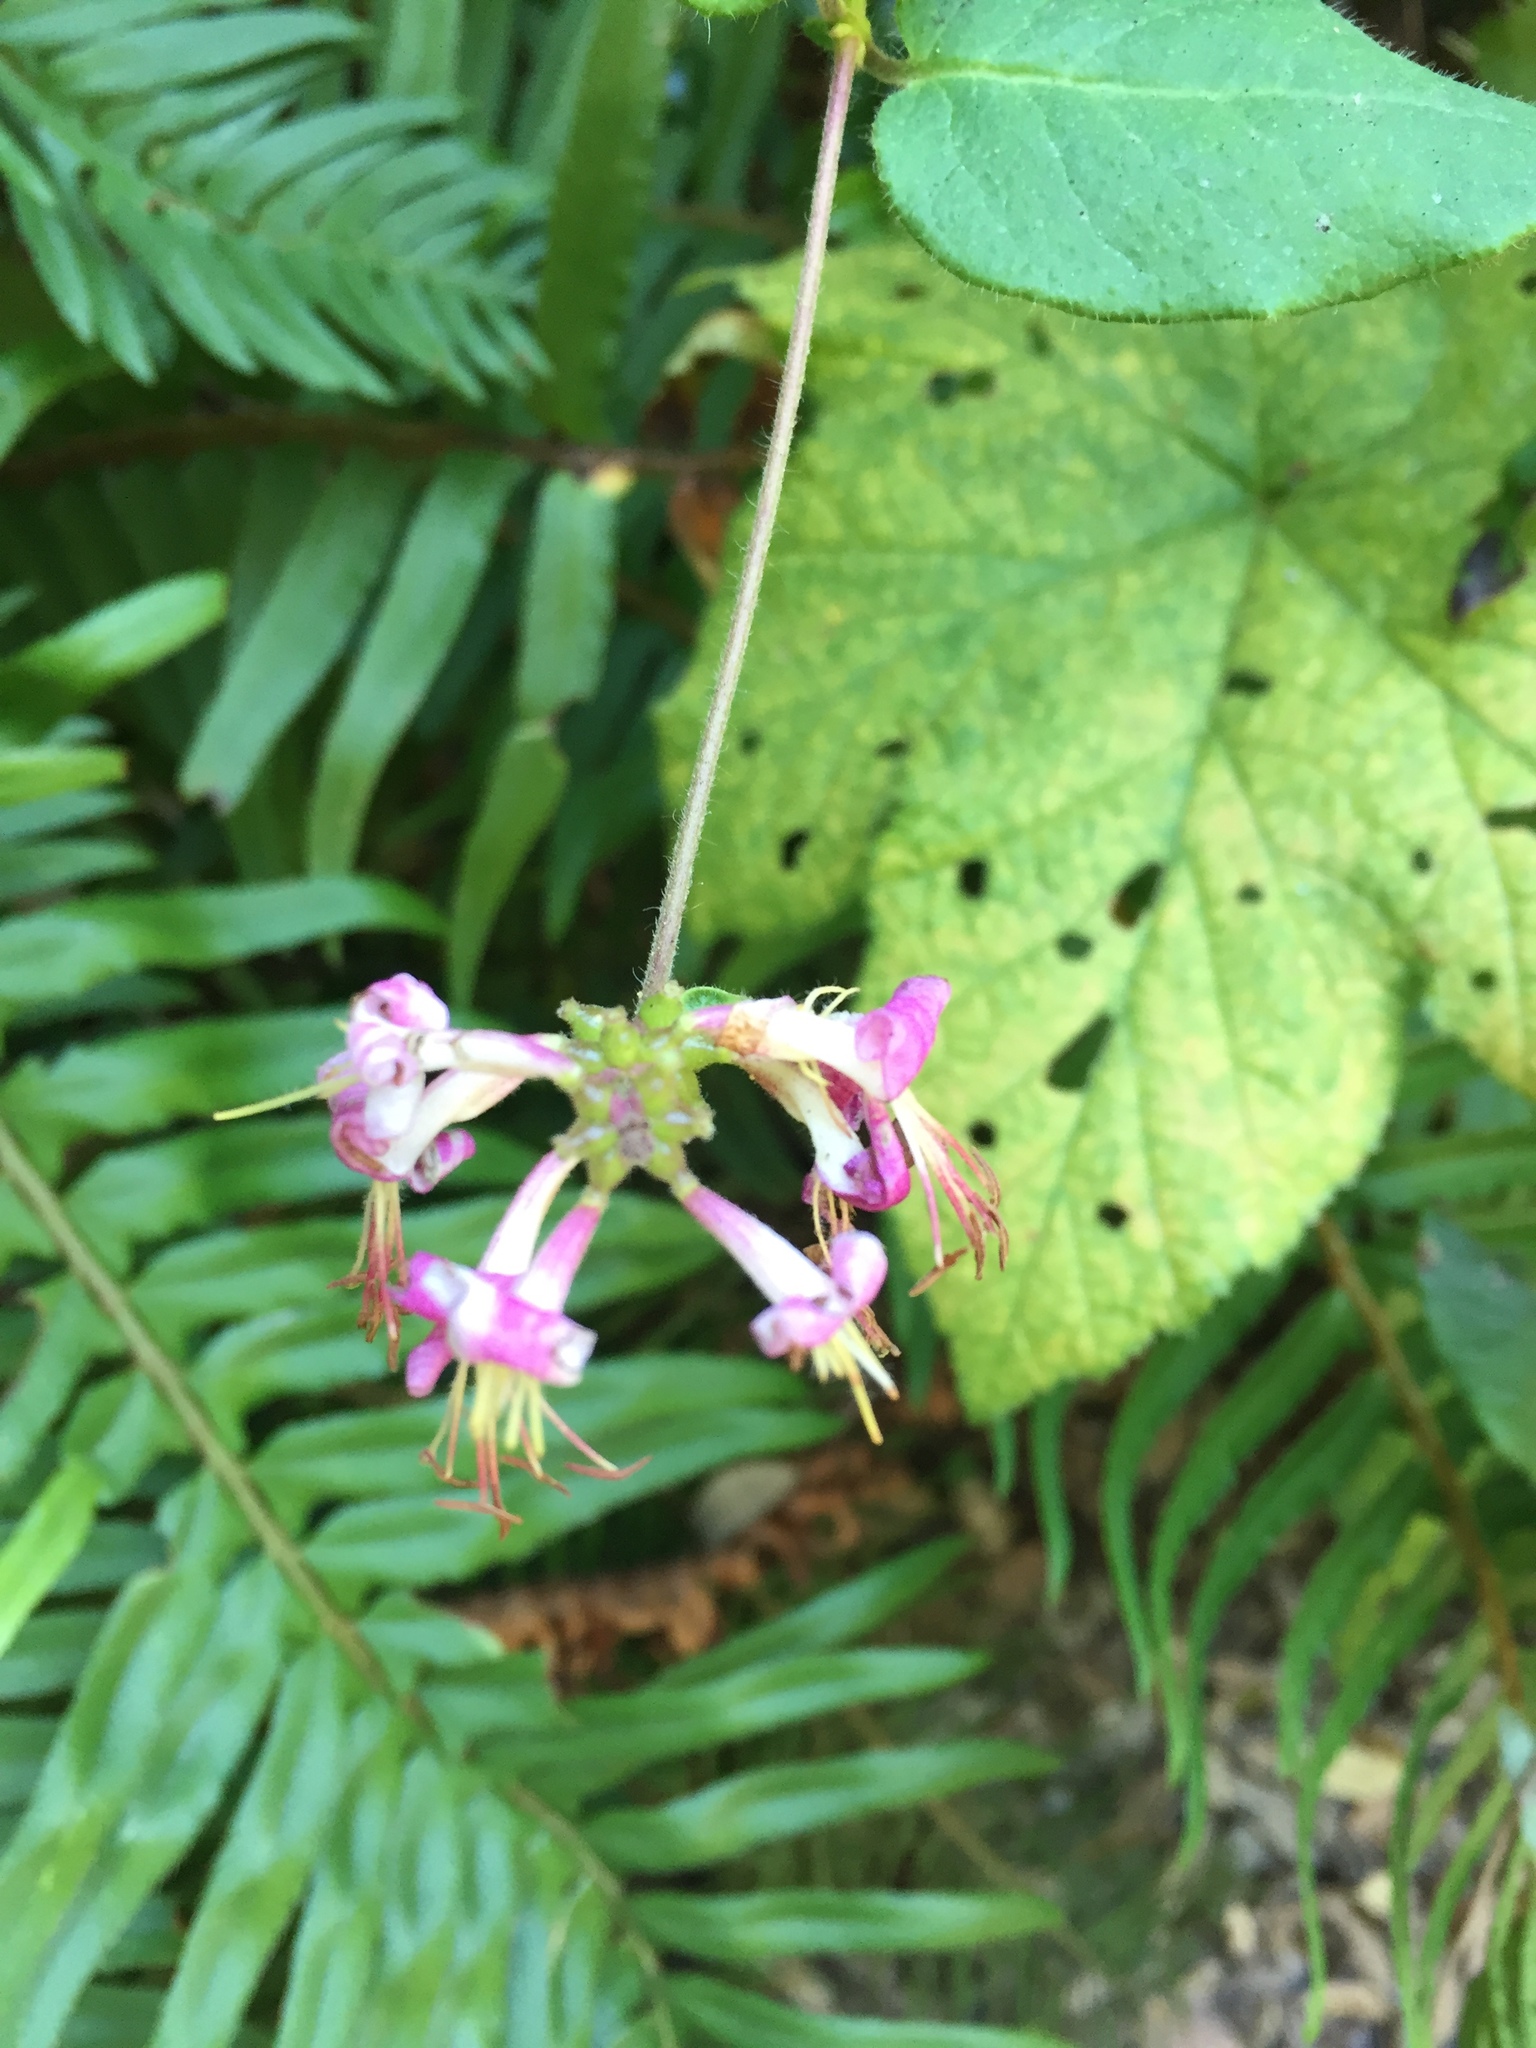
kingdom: Plantae
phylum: Tracheophyta
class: Magnoliopsida
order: Dipsacales
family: Caprifoliaceae
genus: Lonicera
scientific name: Lonicera hispidula
